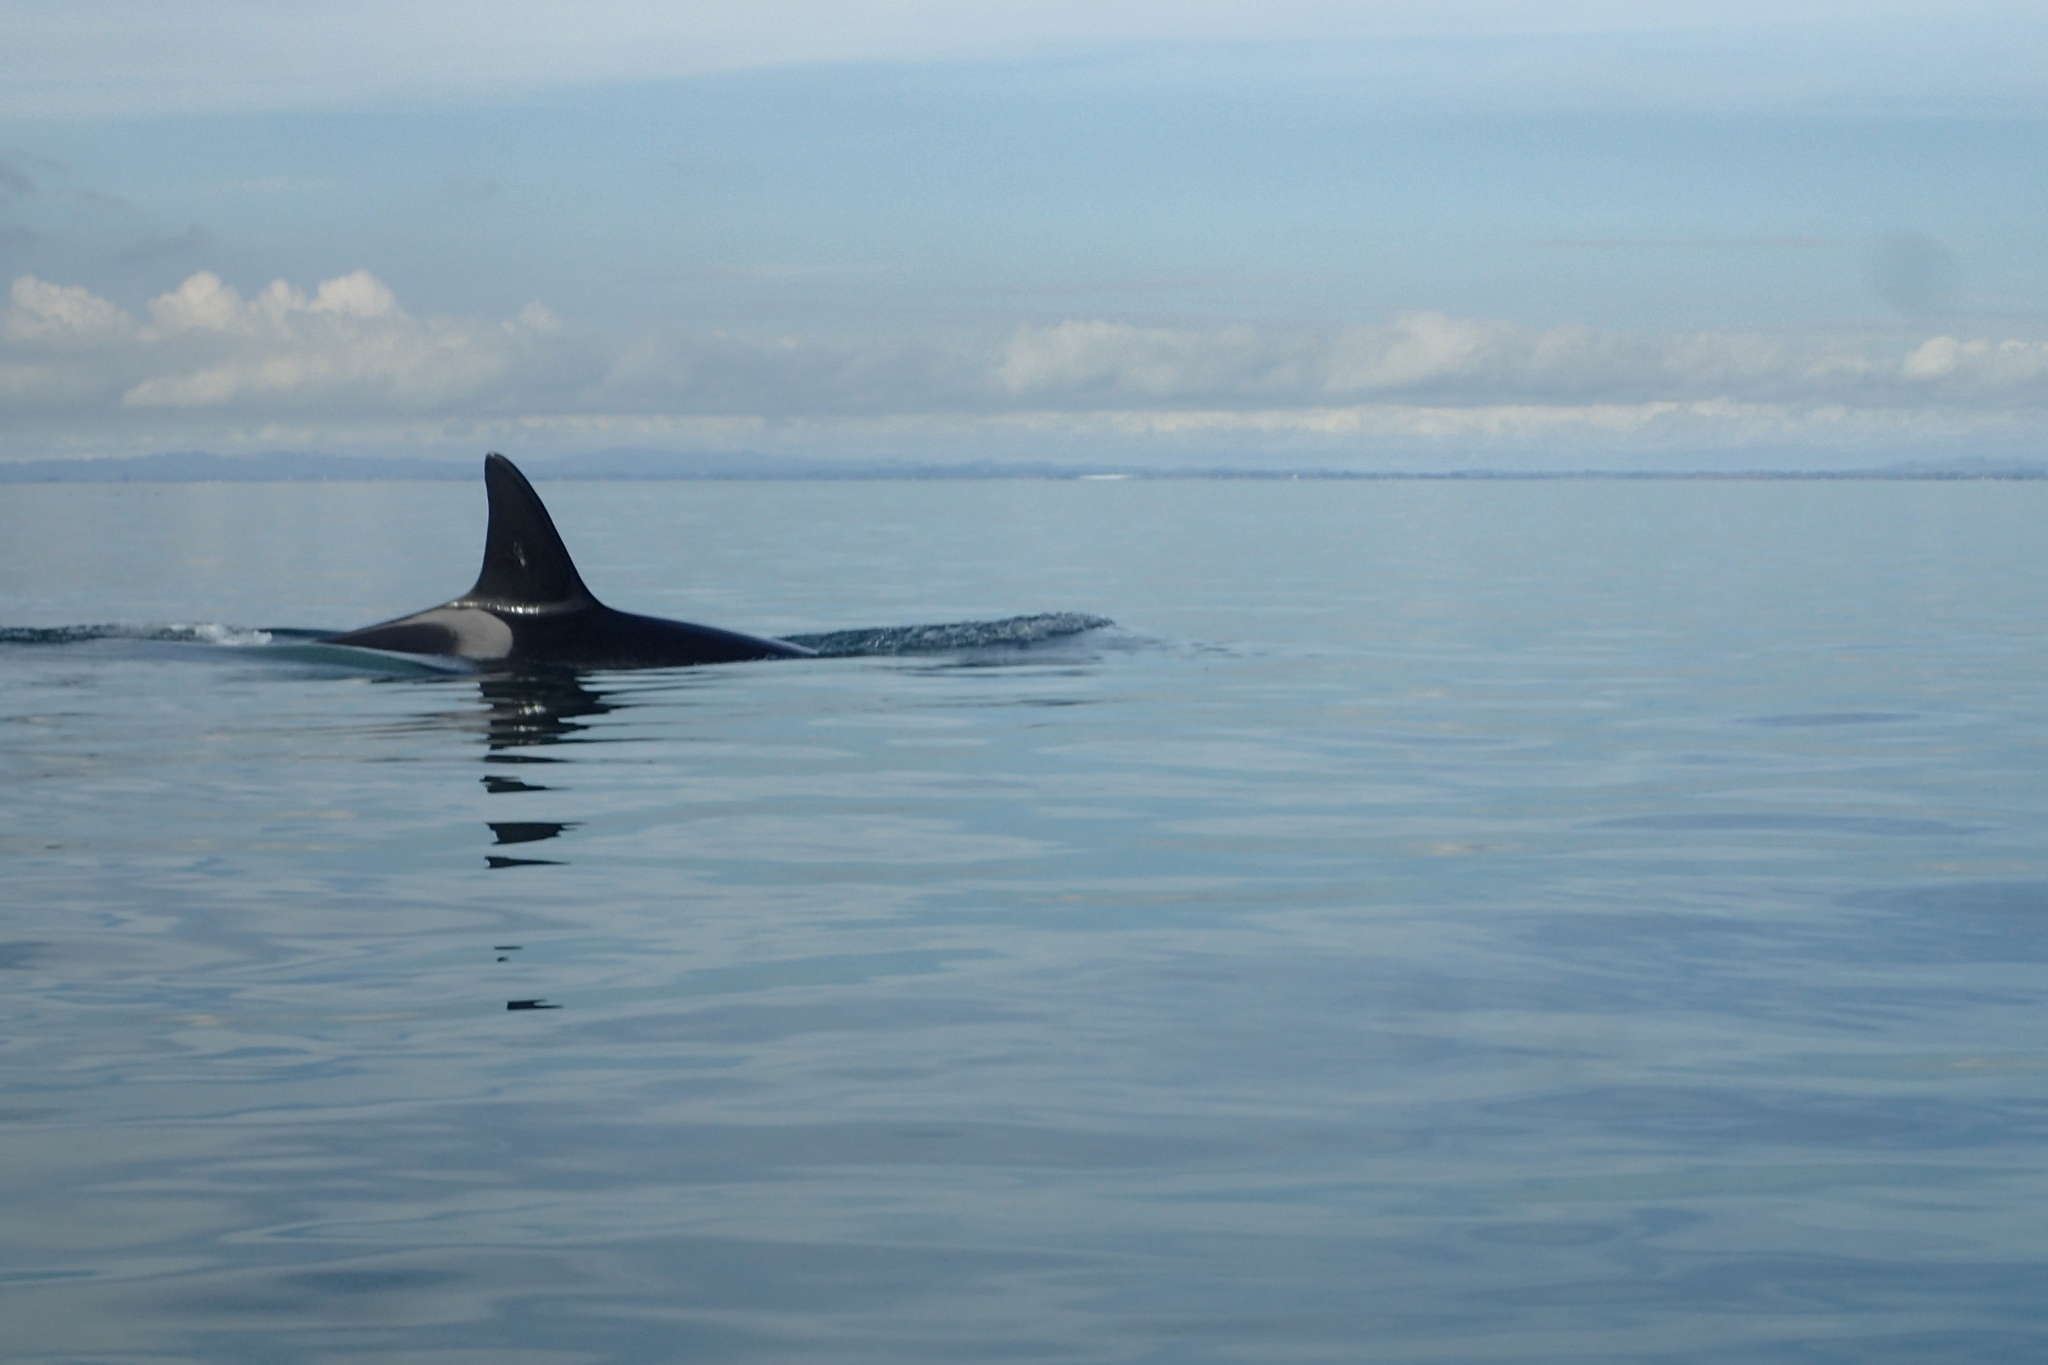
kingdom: Animalia
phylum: Chordata
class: Mammalia
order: Cetacea
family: Delphinidae
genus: Orcinus
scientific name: Orcinus orca
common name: Killer whale
